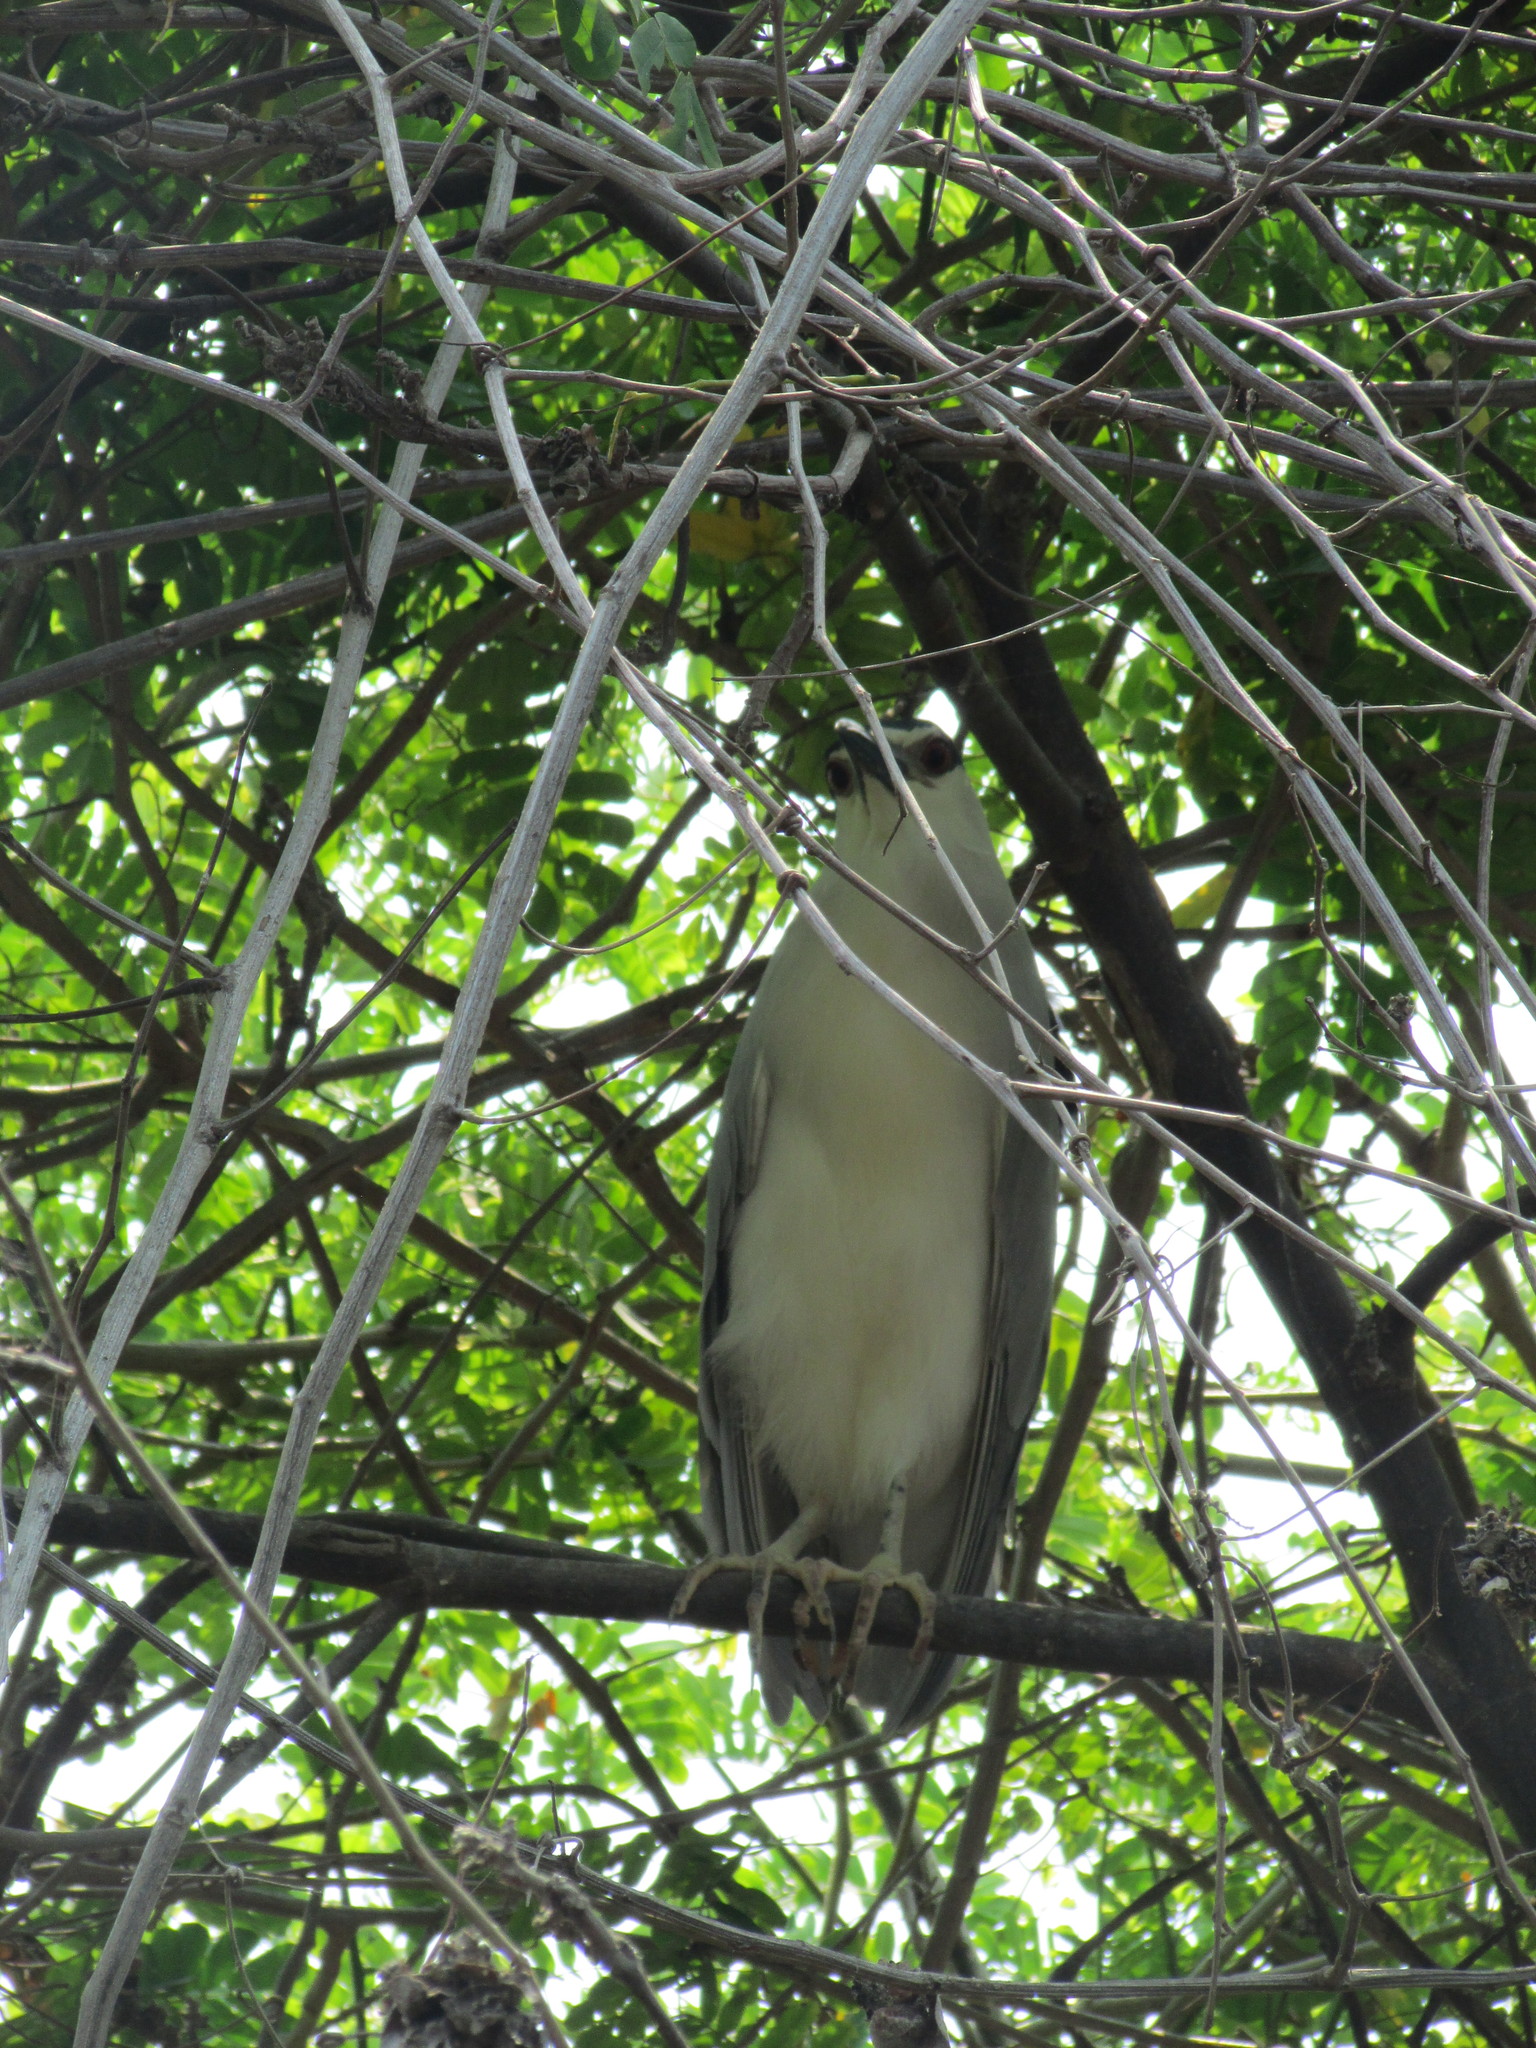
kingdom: Animalia
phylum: Chordata
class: Aves
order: Pelecaniformes
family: Ardeidae
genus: Nycticorax
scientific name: Nycticorax nycticorax
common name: Black-crowned night heron
